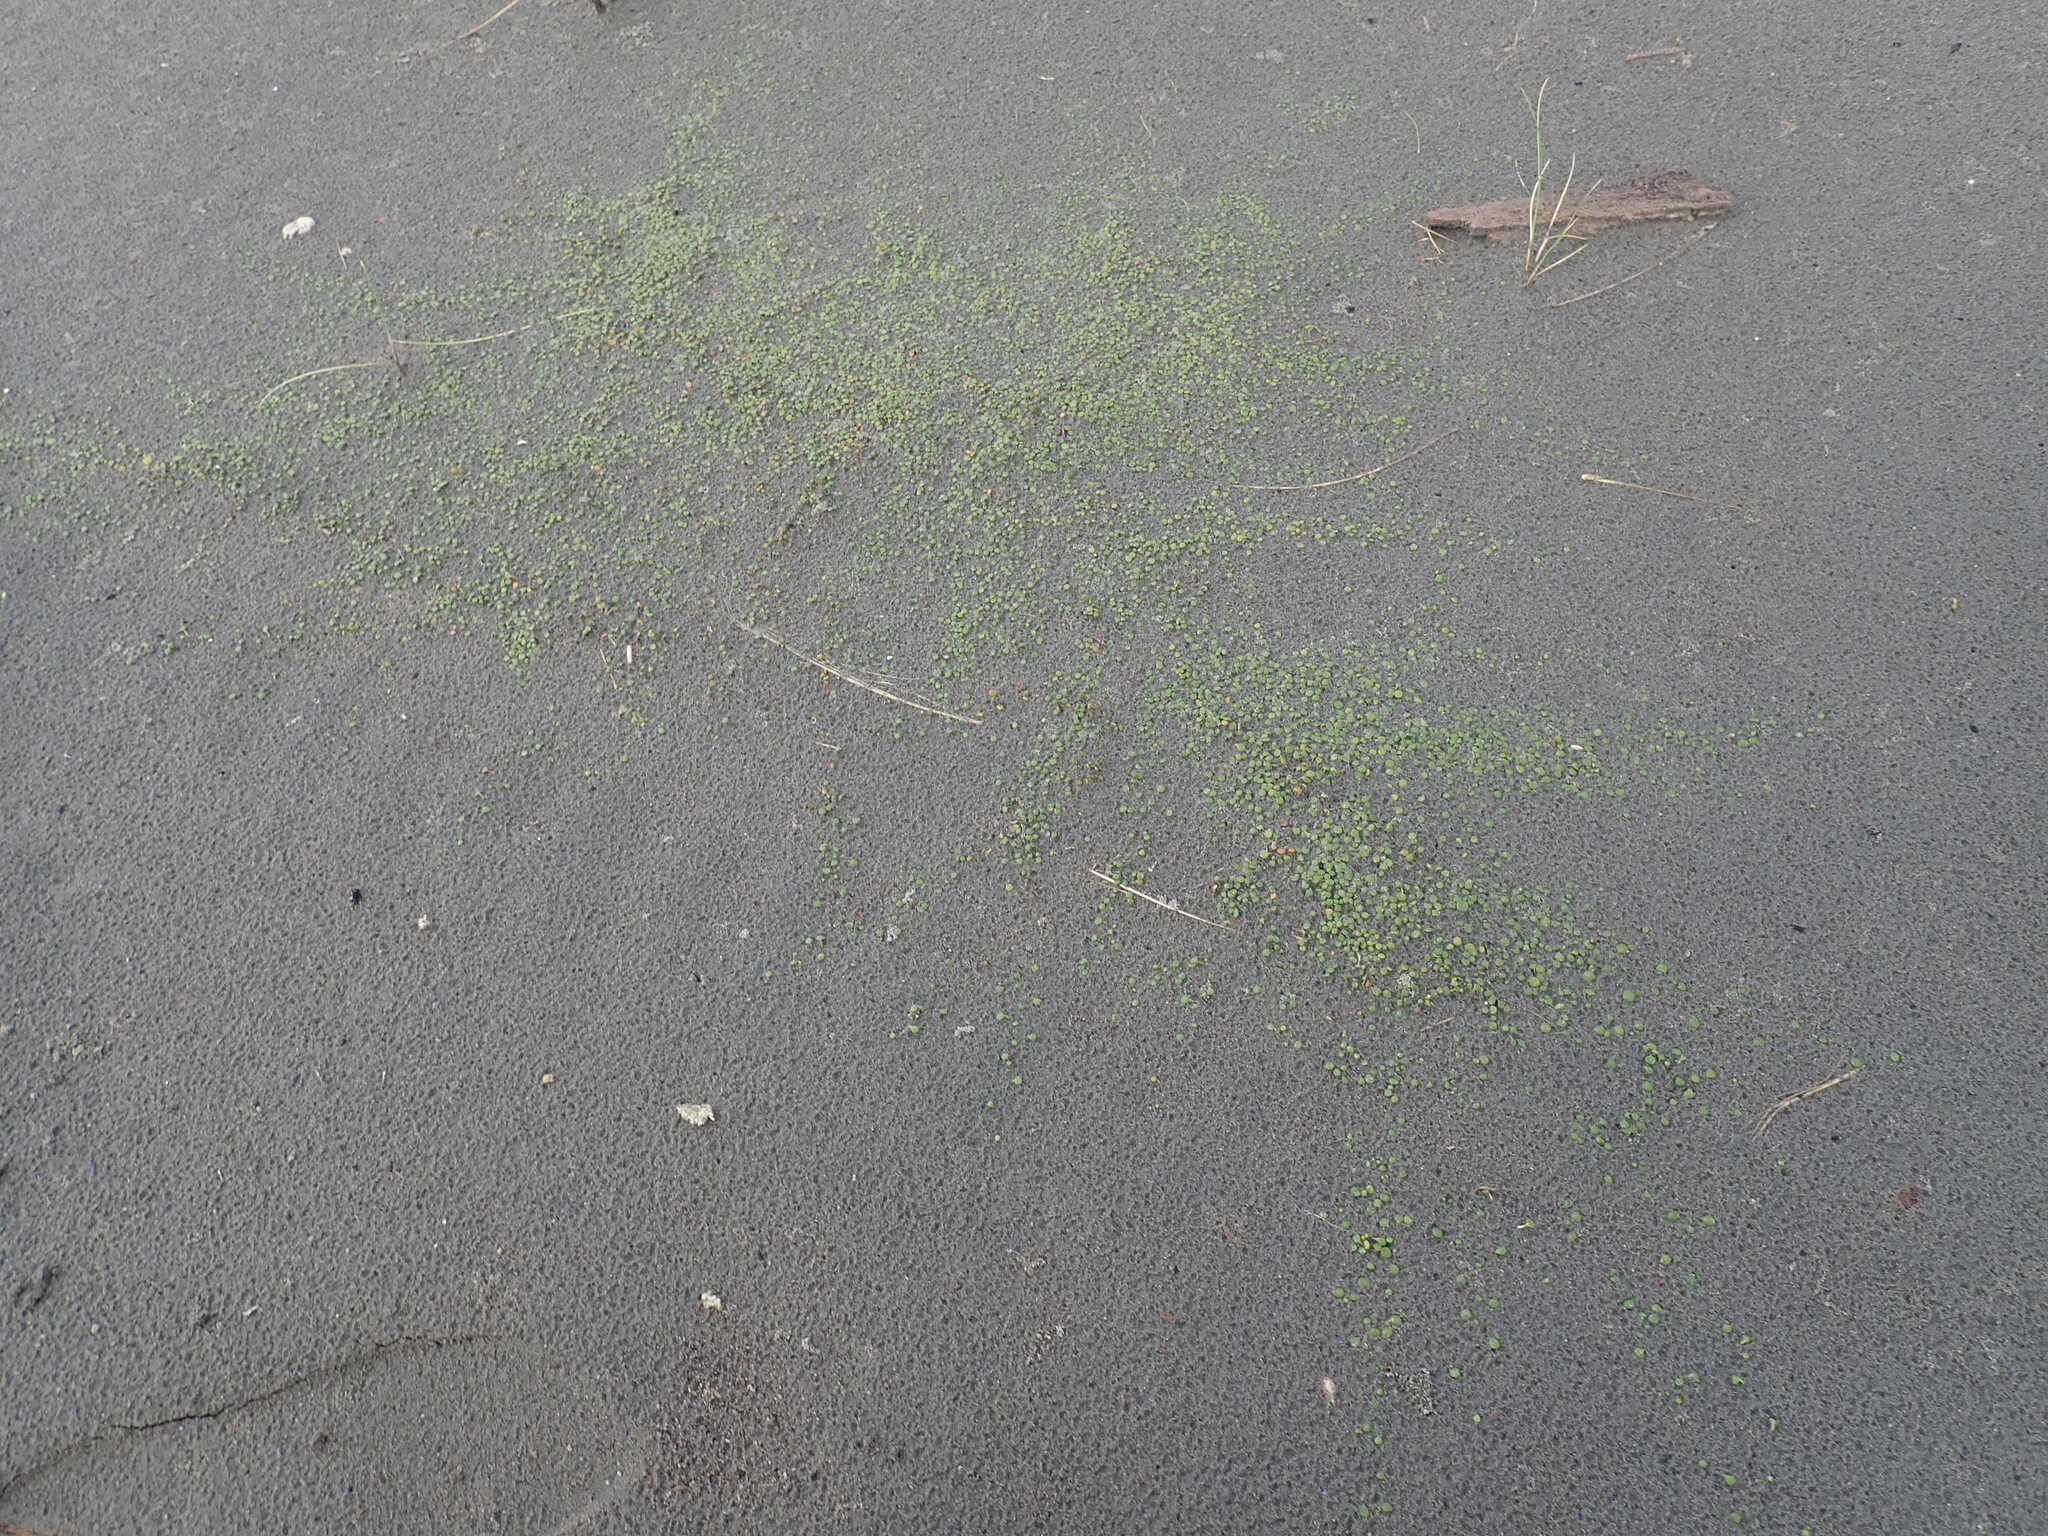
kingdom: Plantae
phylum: Tracheophyta
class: Magnoliopsida
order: Asterales
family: Goodeniaceae
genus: Goodenia
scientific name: Goodenia heenanii
